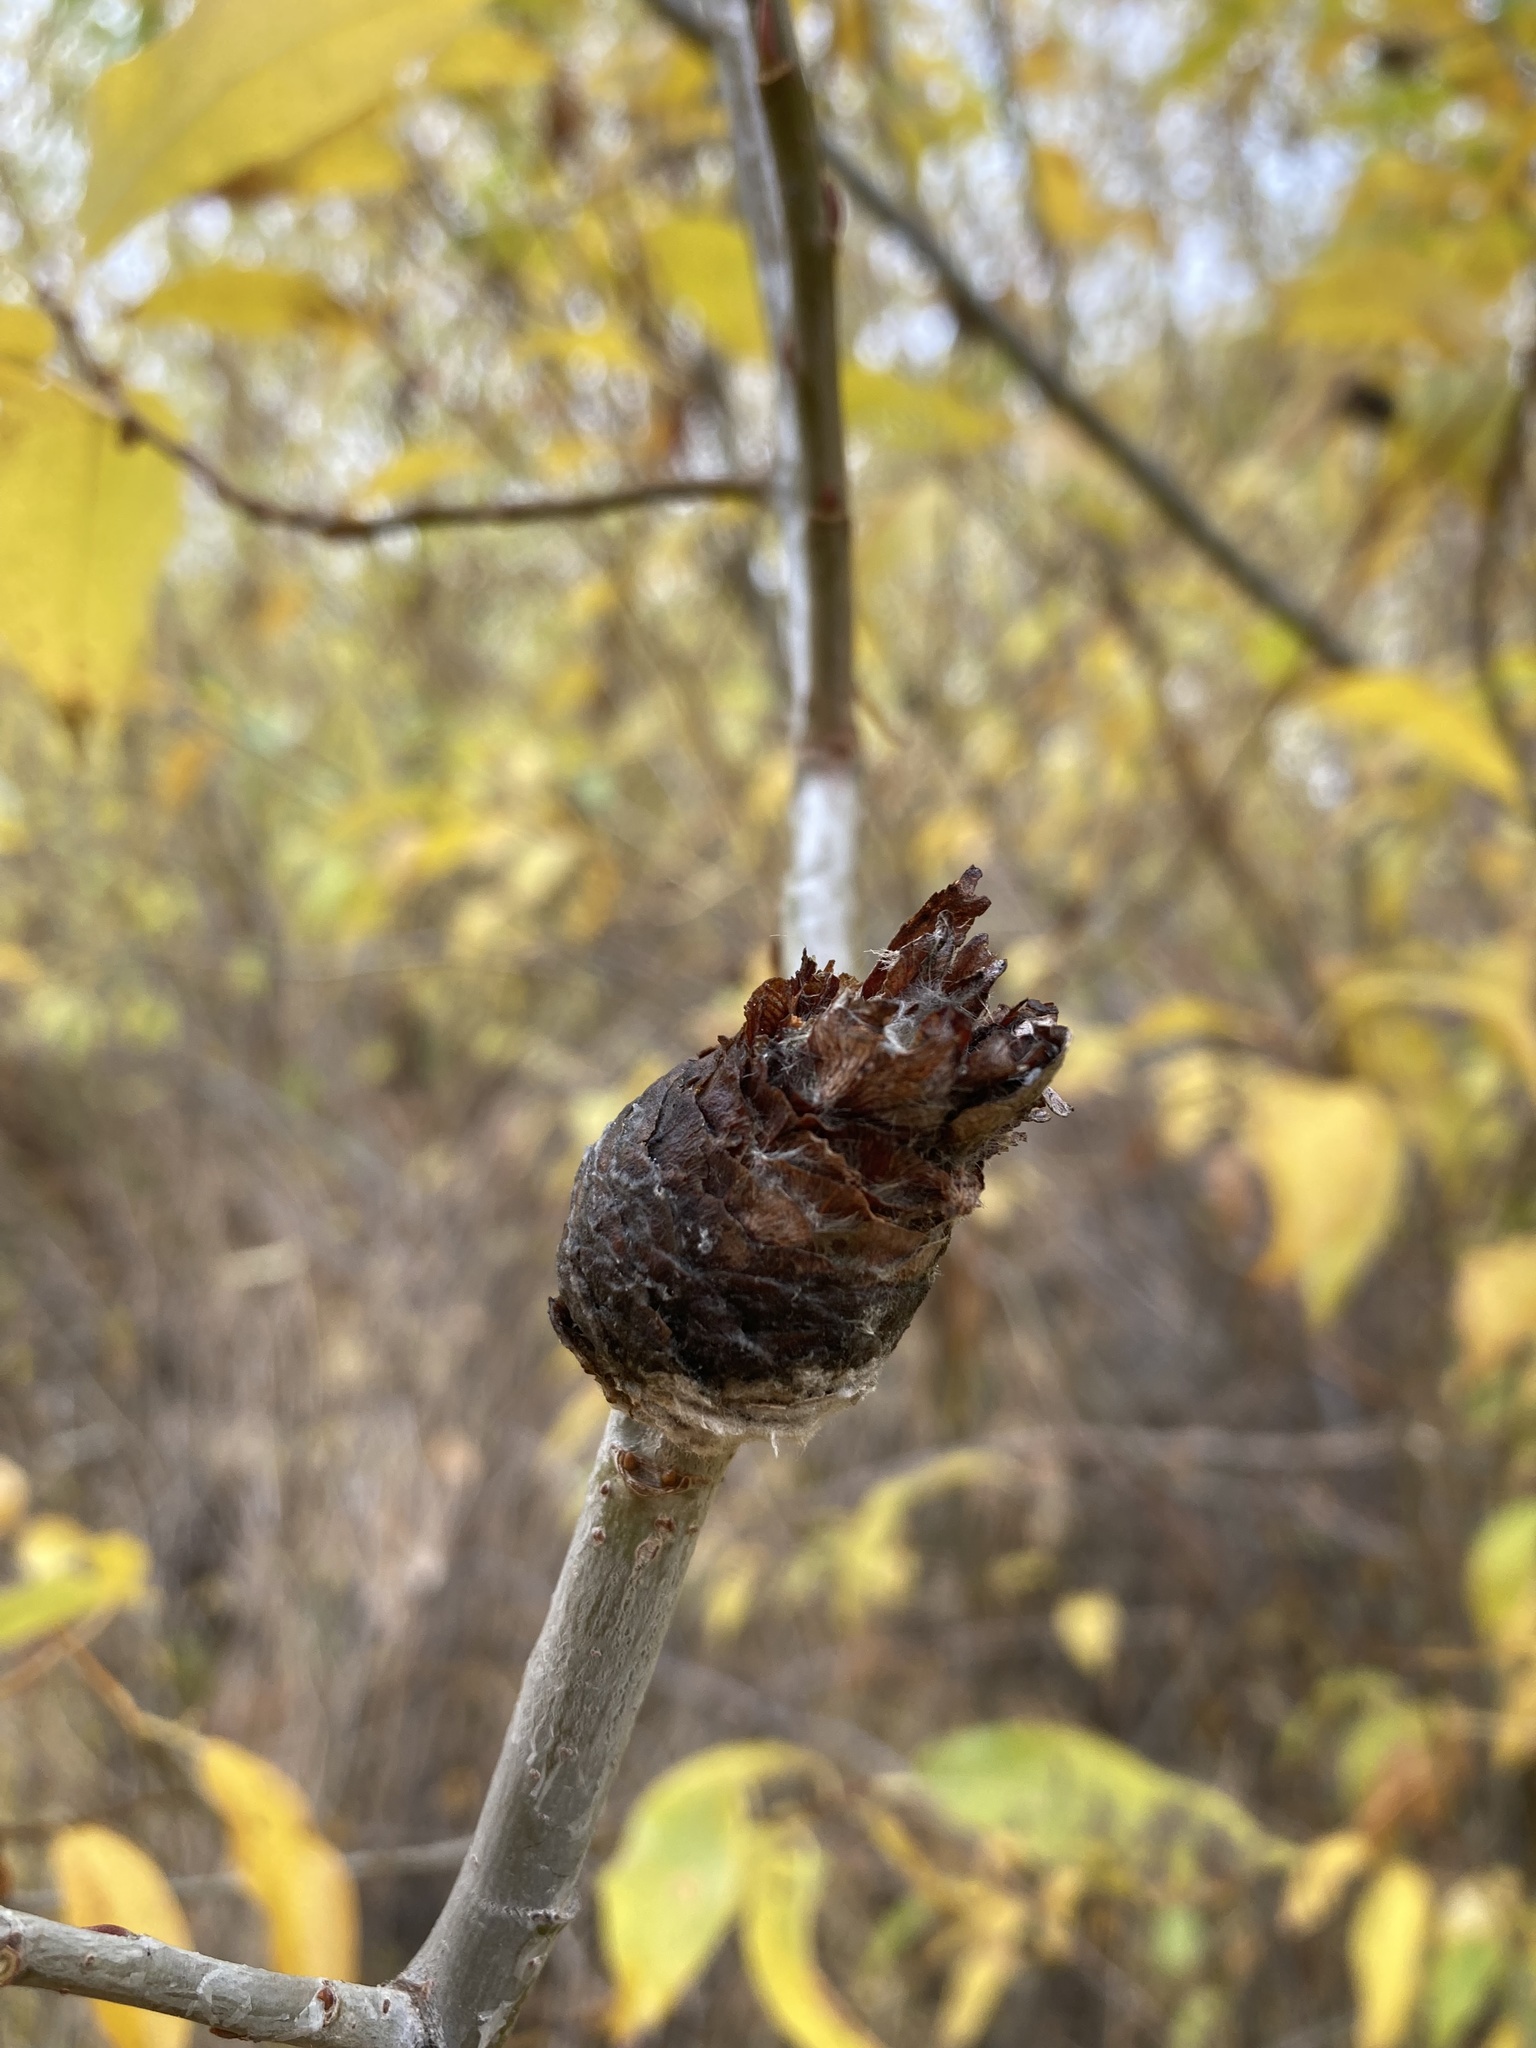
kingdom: Animalia
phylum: Arthropoda
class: Insecta
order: Diptera
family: Cecidomyiidae
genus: Rabdophaga
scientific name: Rabdophaga strobiloides
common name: Willow pinecone gall midge
